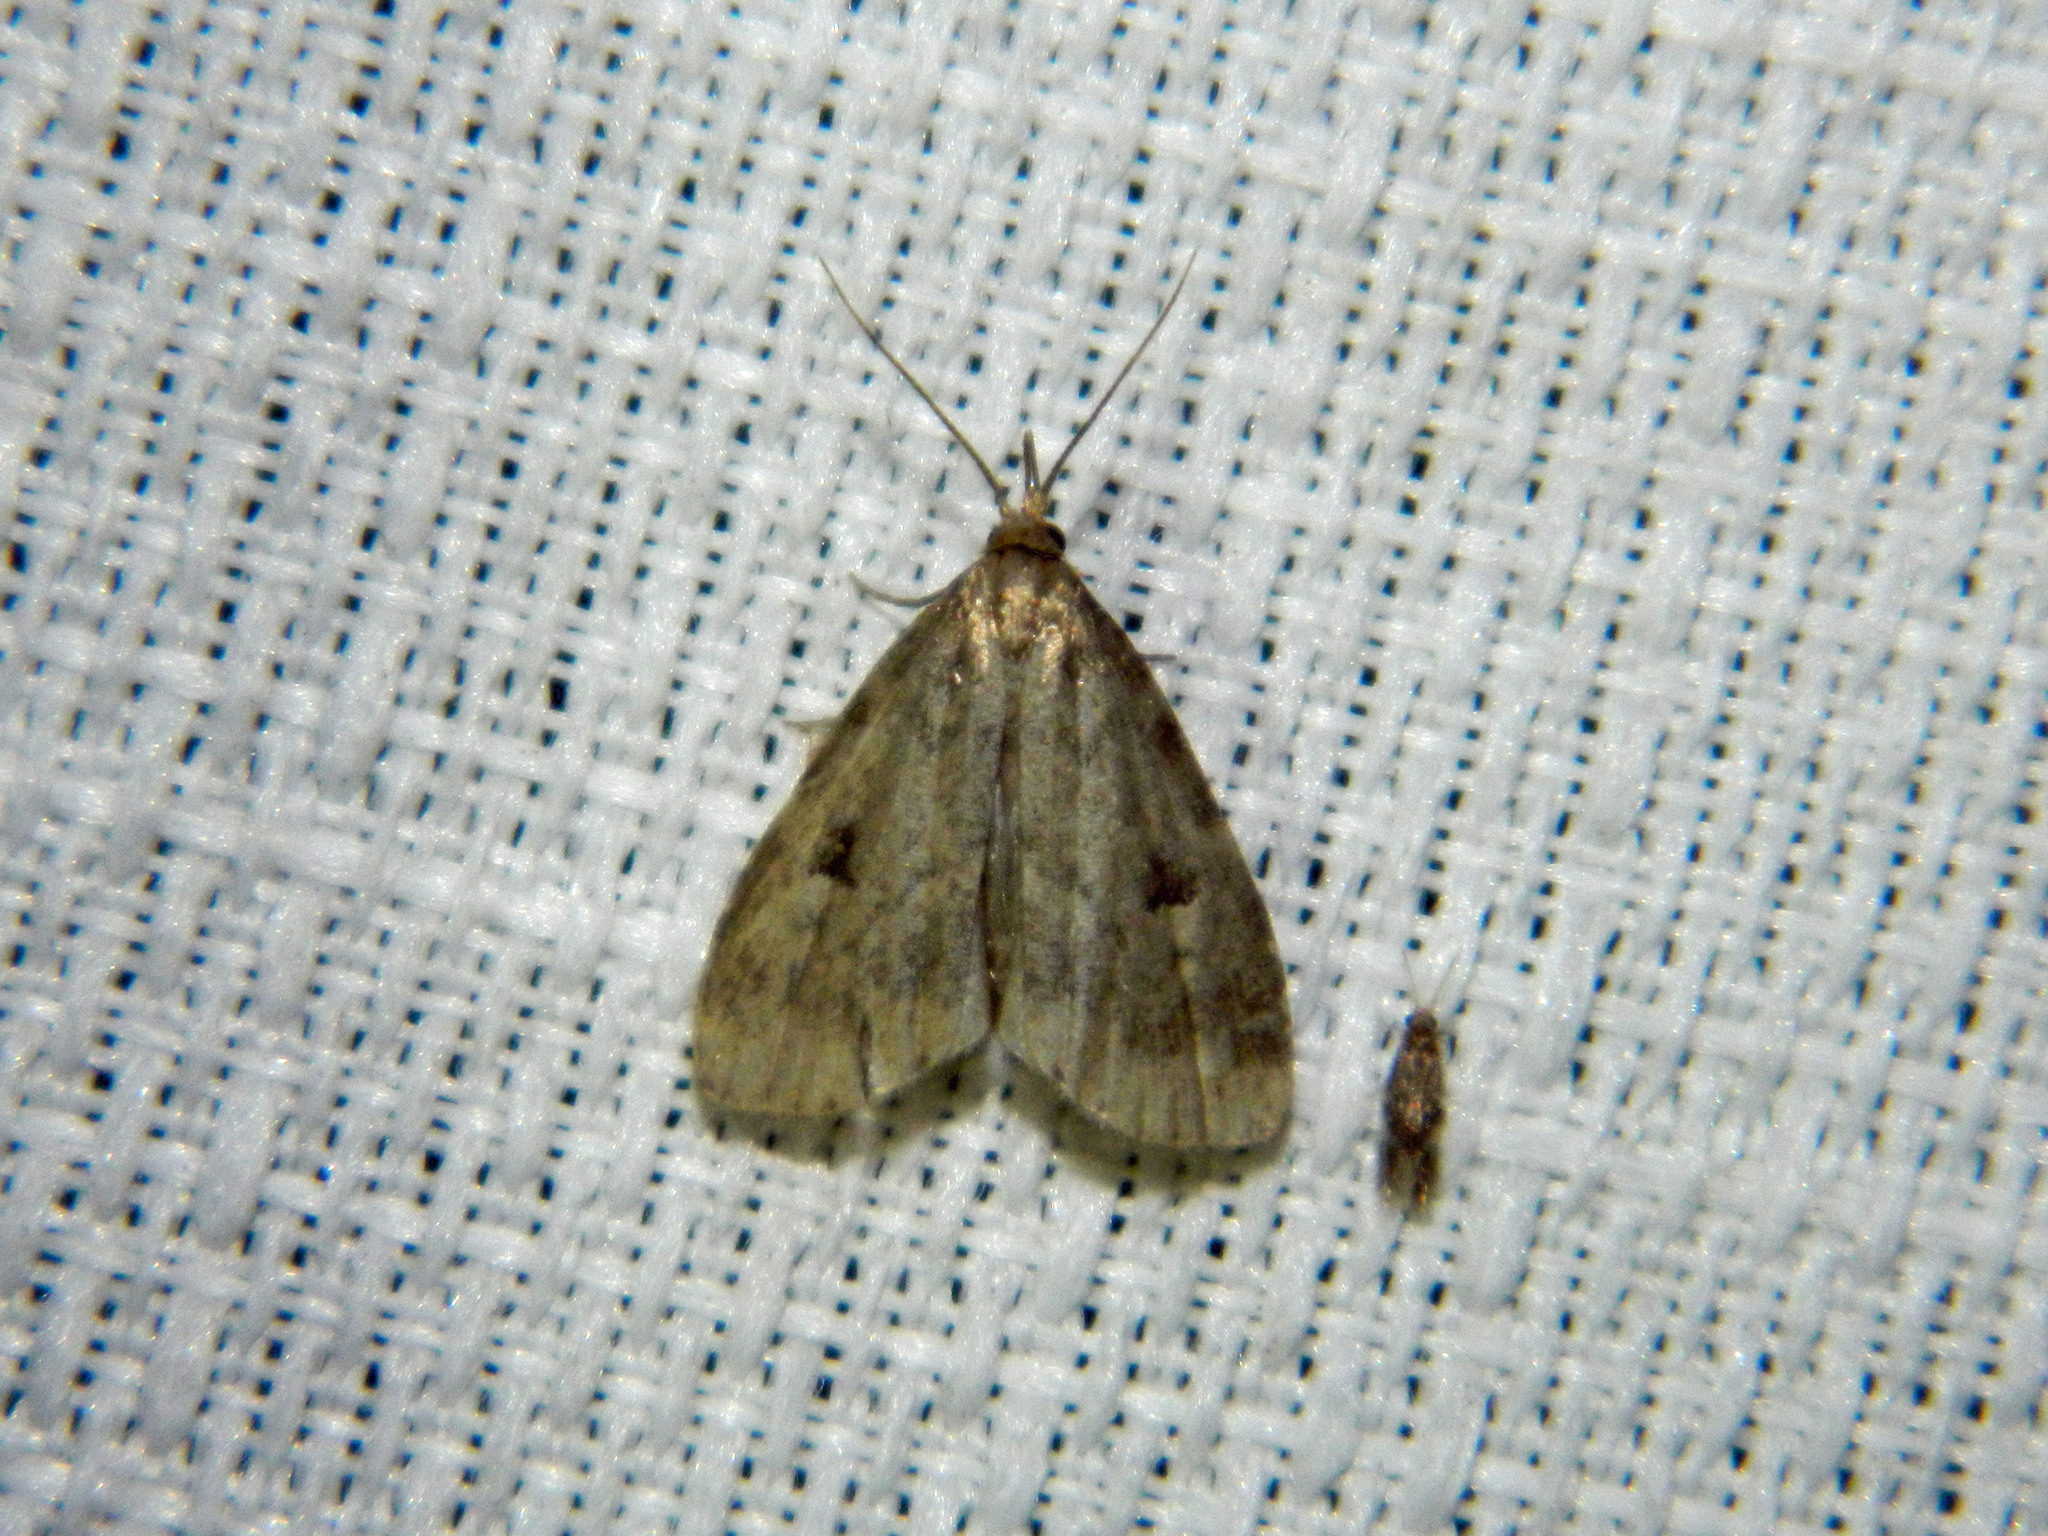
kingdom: Animalia
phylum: Arthropoda
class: Insecta
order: Lepidoptera
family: Erebidae
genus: Paradelta
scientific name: Paradelta Parahypenodes quadralis
